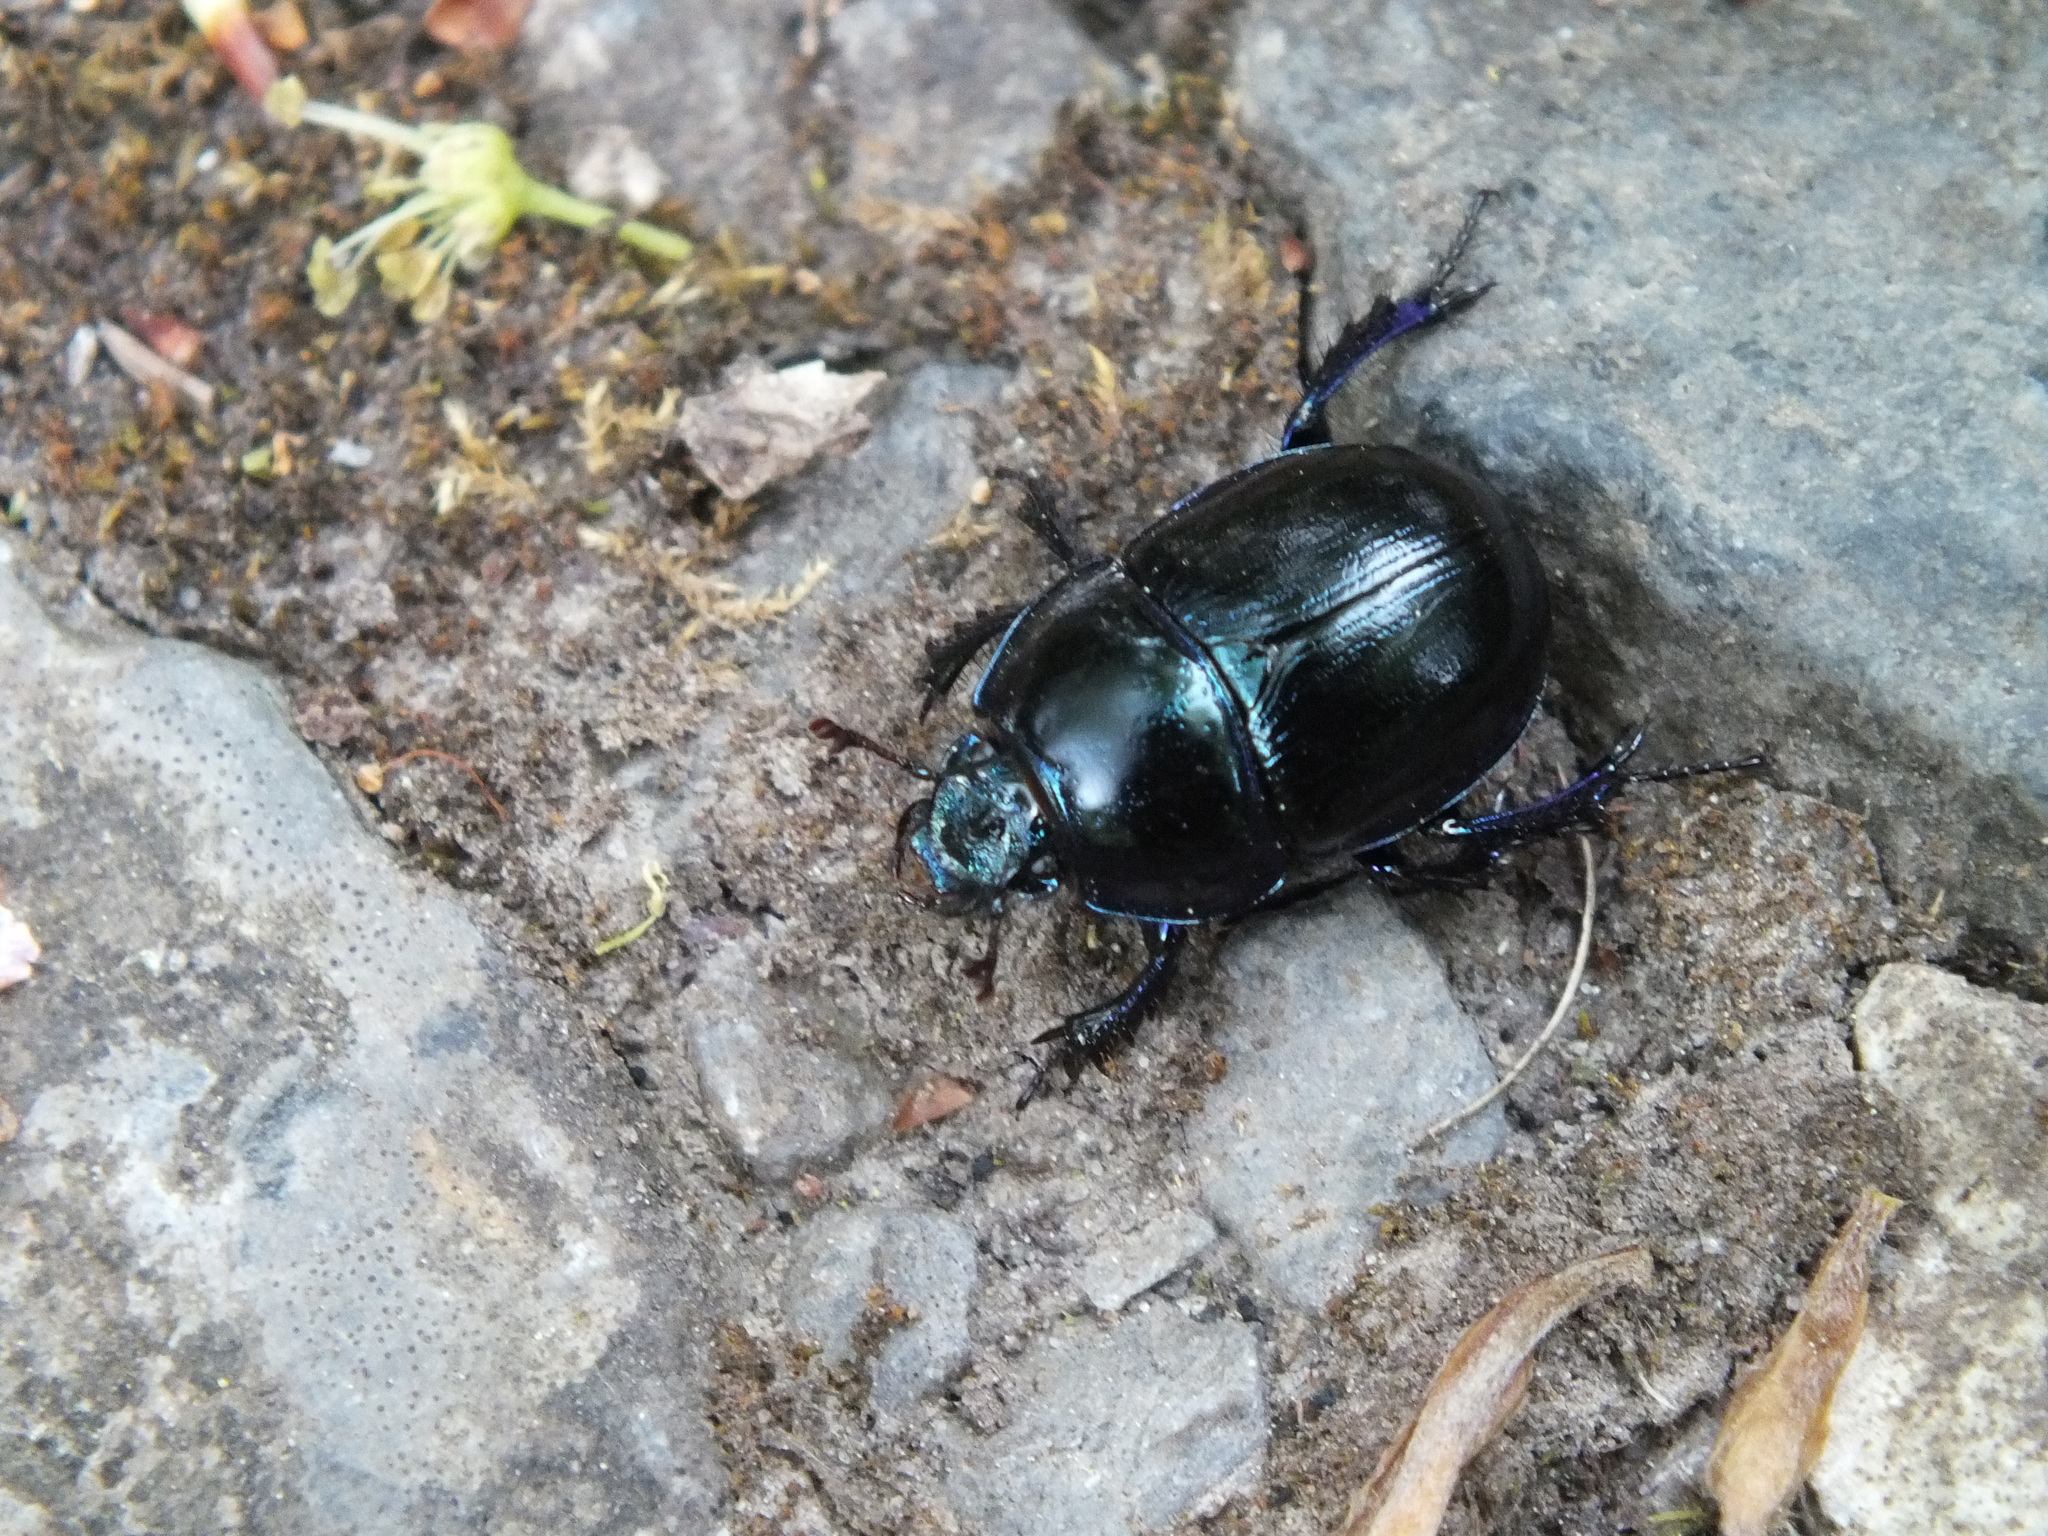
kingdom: Animalia
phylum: Arthropoda
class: Insecta
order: Coleoptera
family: Geotrupidae
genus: Anoplotrupes
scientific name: Anoplotrupes stercorosus
